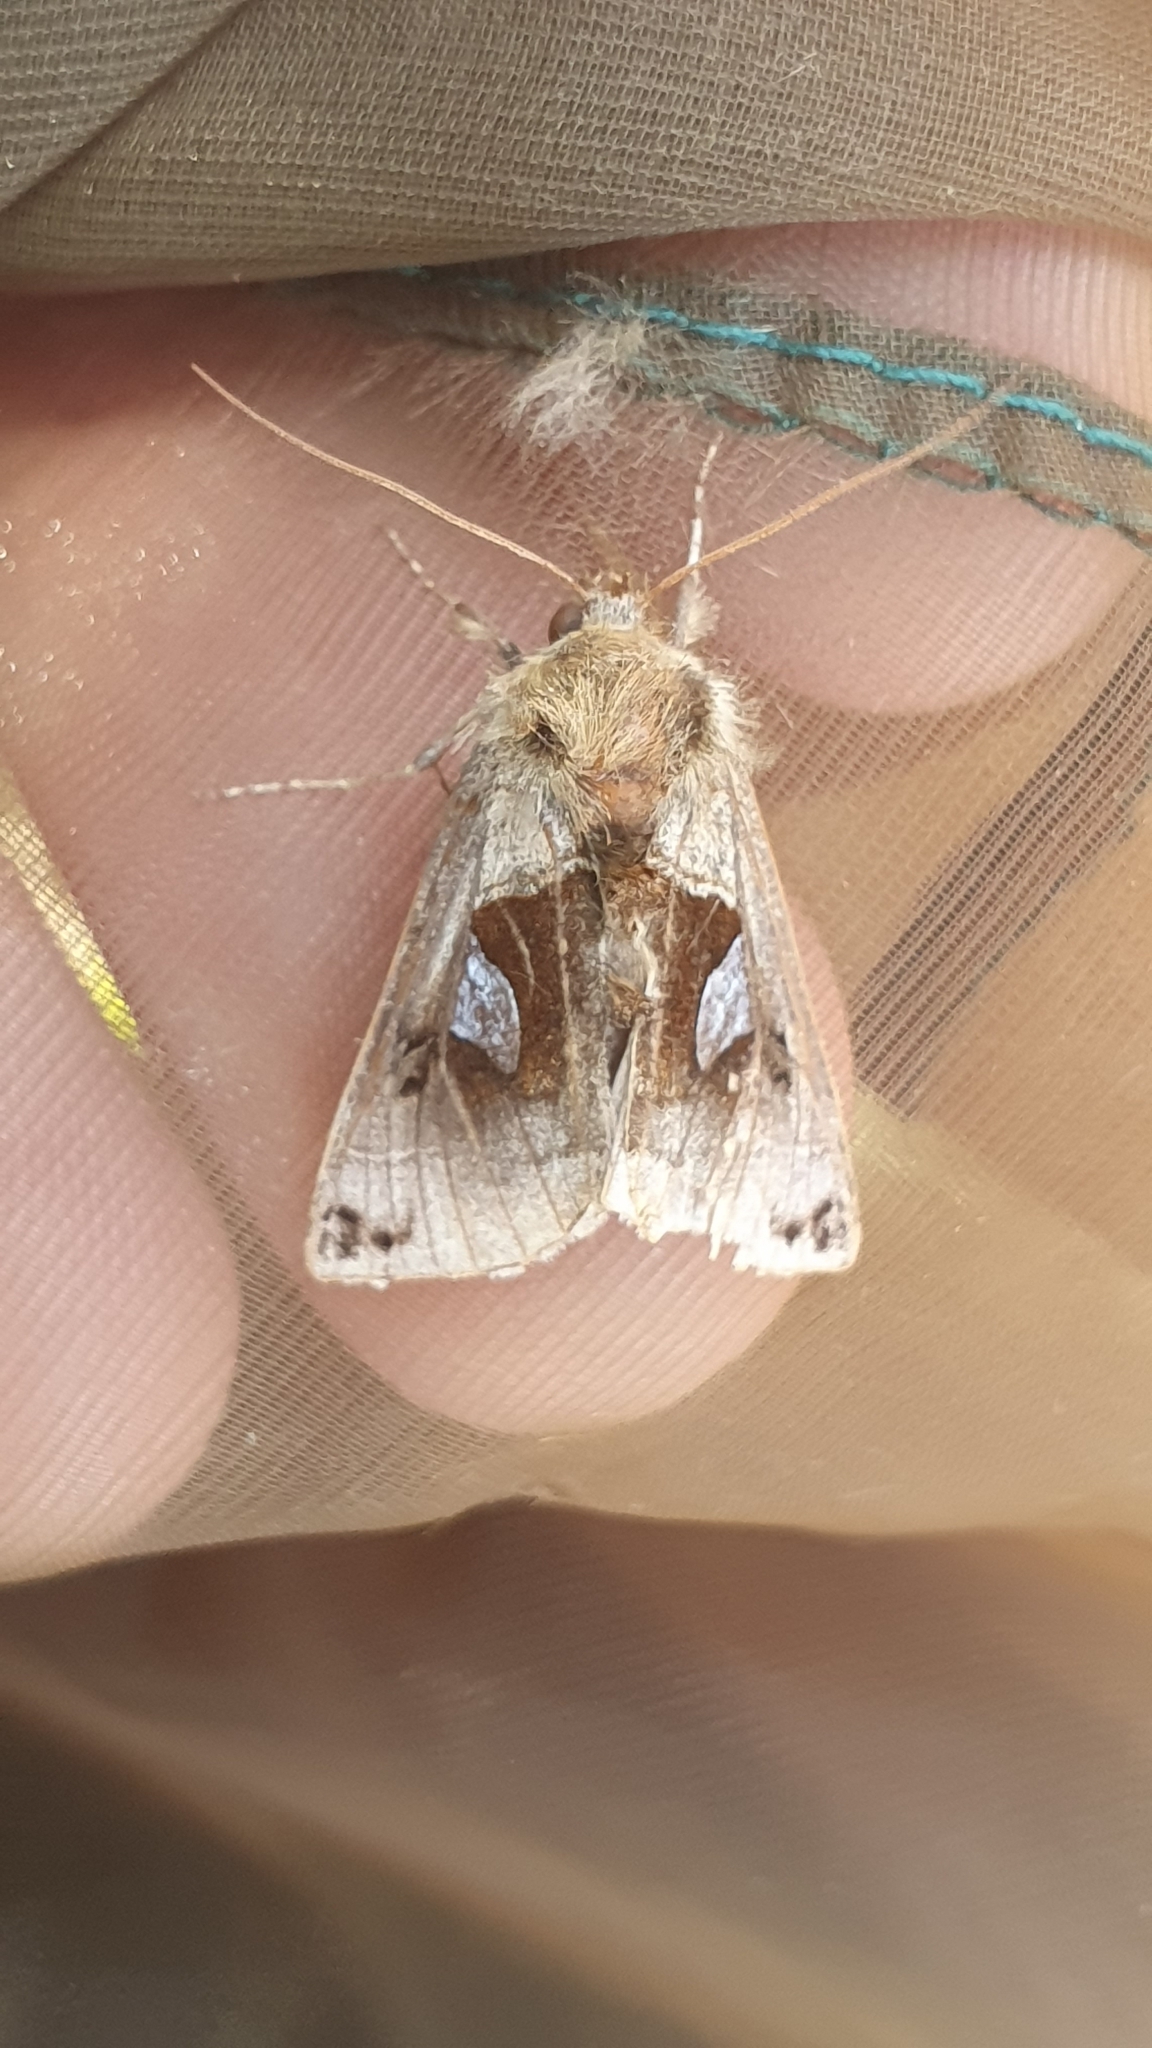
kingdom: Animalia
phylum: Arthropoda
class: Insecta
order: Lepidoptera
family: Noctuidae
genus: Autographa
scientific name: Autographa aemula
